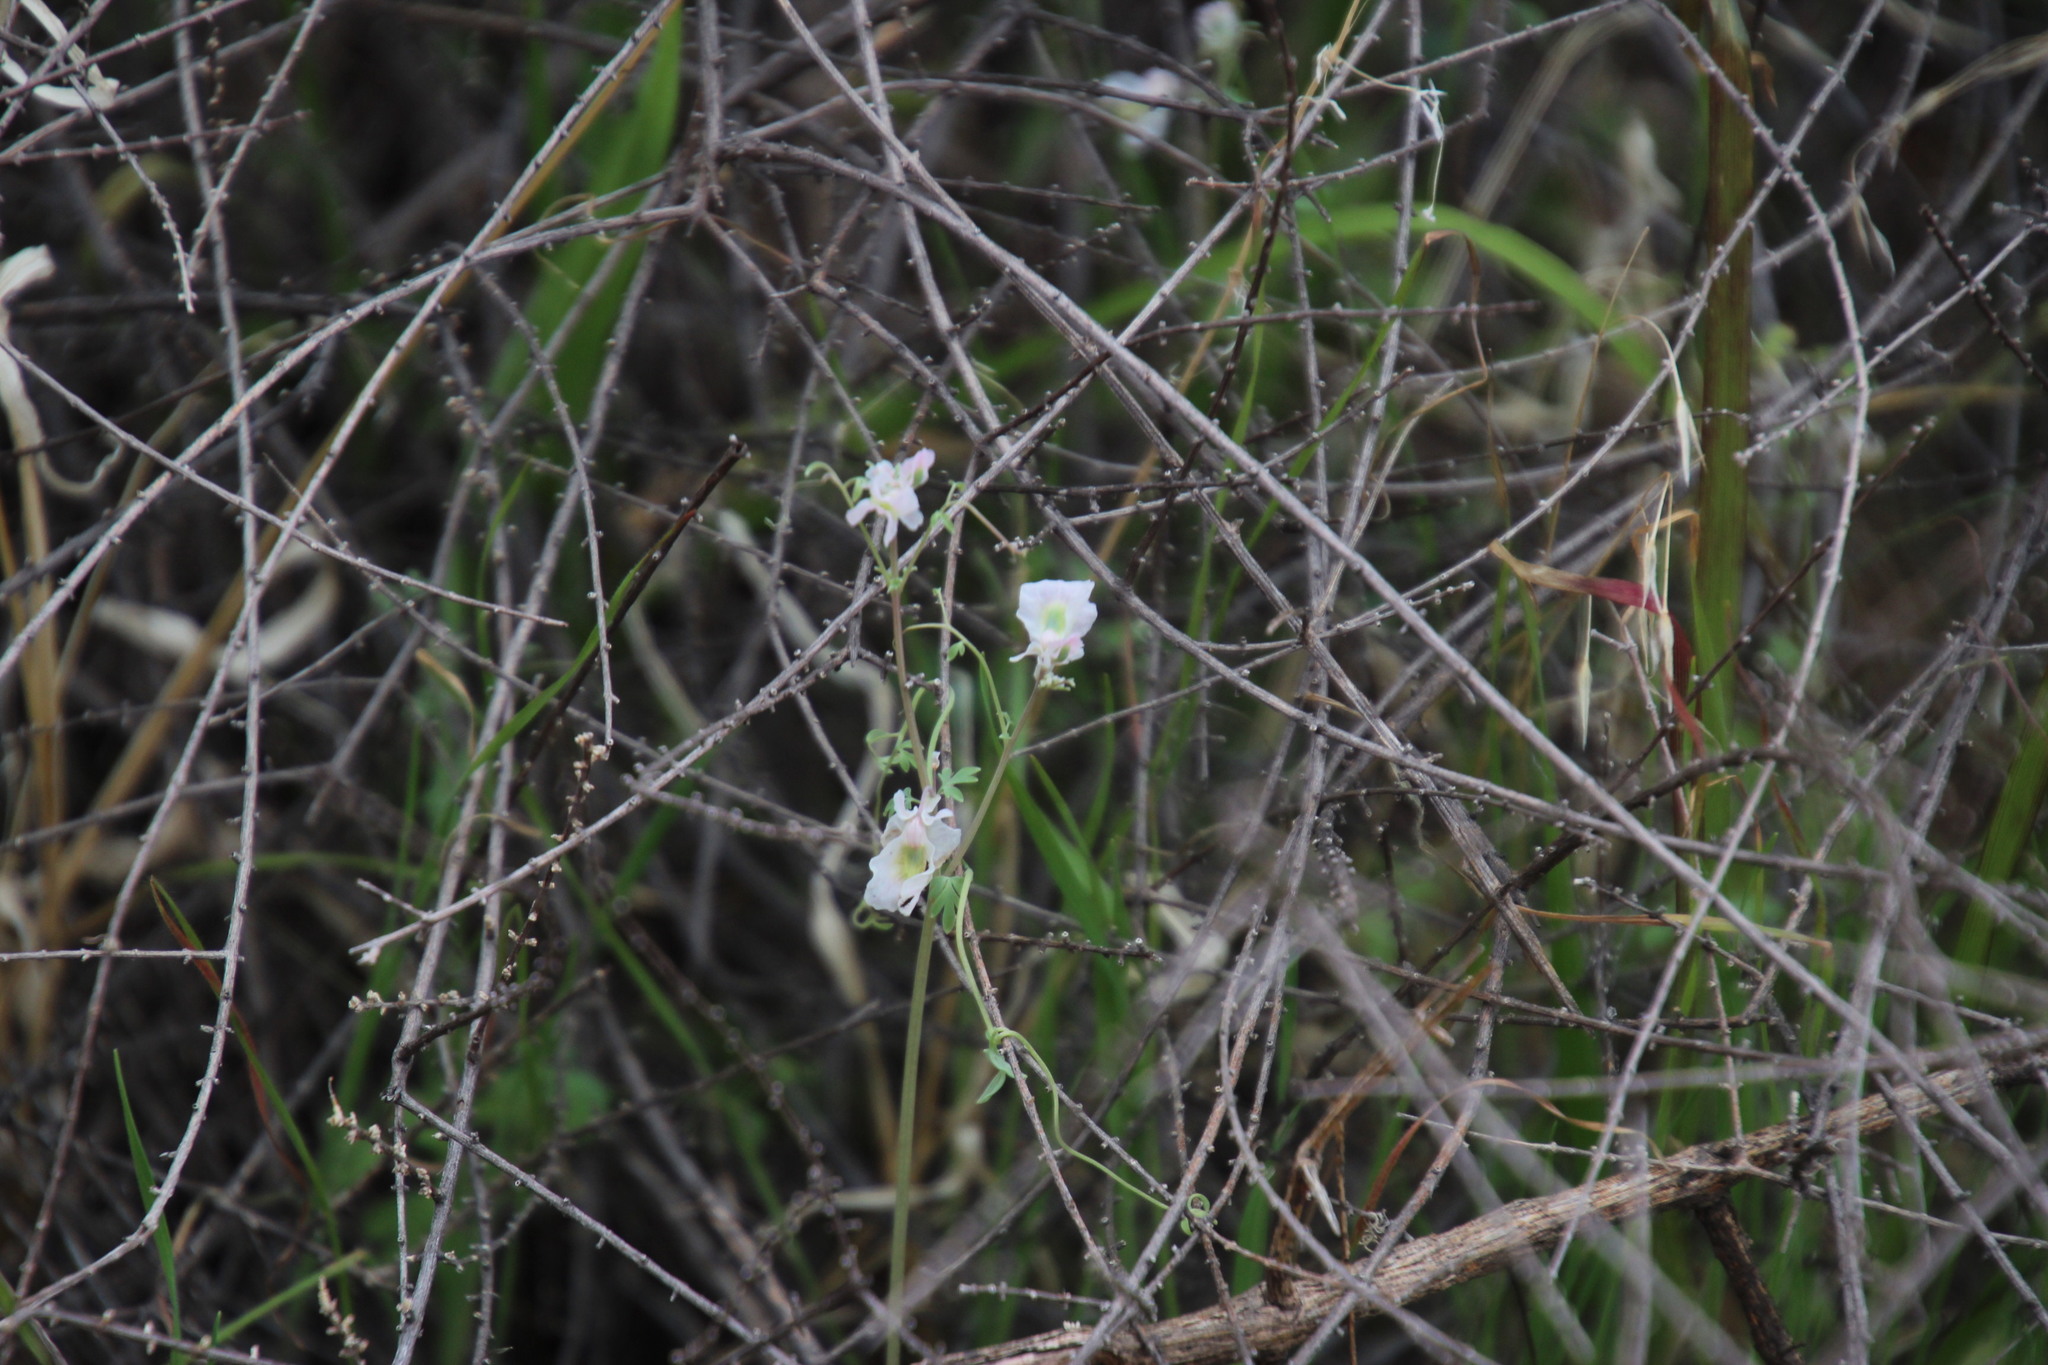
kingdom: Plantae
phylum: Tracheophyta
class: Magnoliopsida
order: Ranunculales
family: Papaveraceae
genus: Cysticapnos
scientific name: Cysticapnos vesicaria
